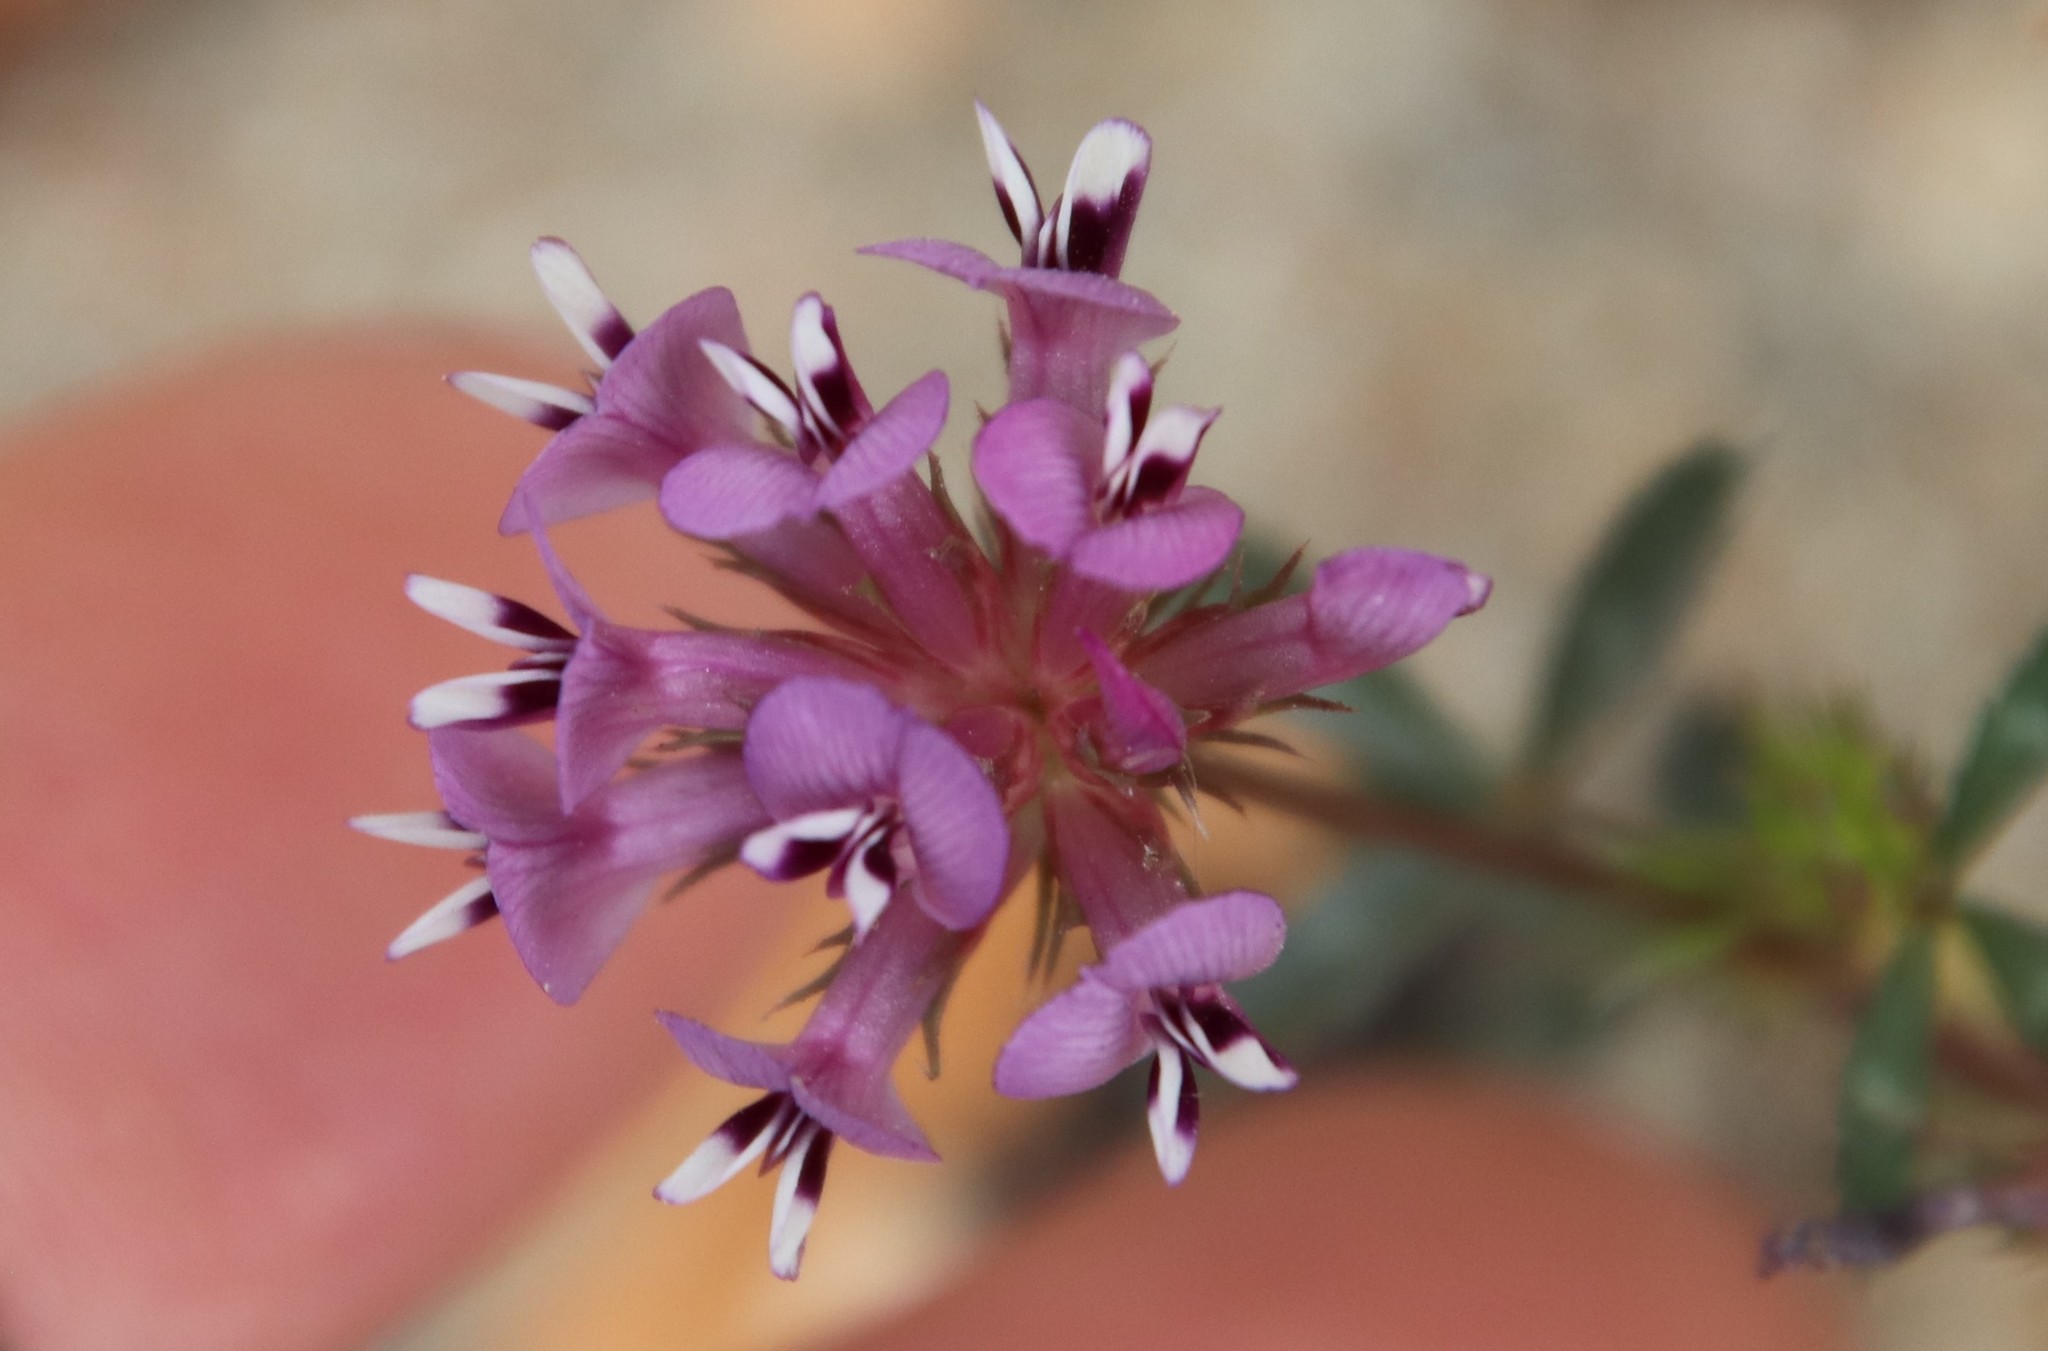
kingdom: Plantae
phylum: Tracheophyta
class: Magnoliopsida
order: Fabales
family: Fabaceae
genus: Trifolium
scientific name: Trifolium willdenovii
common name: Tomcat clover
